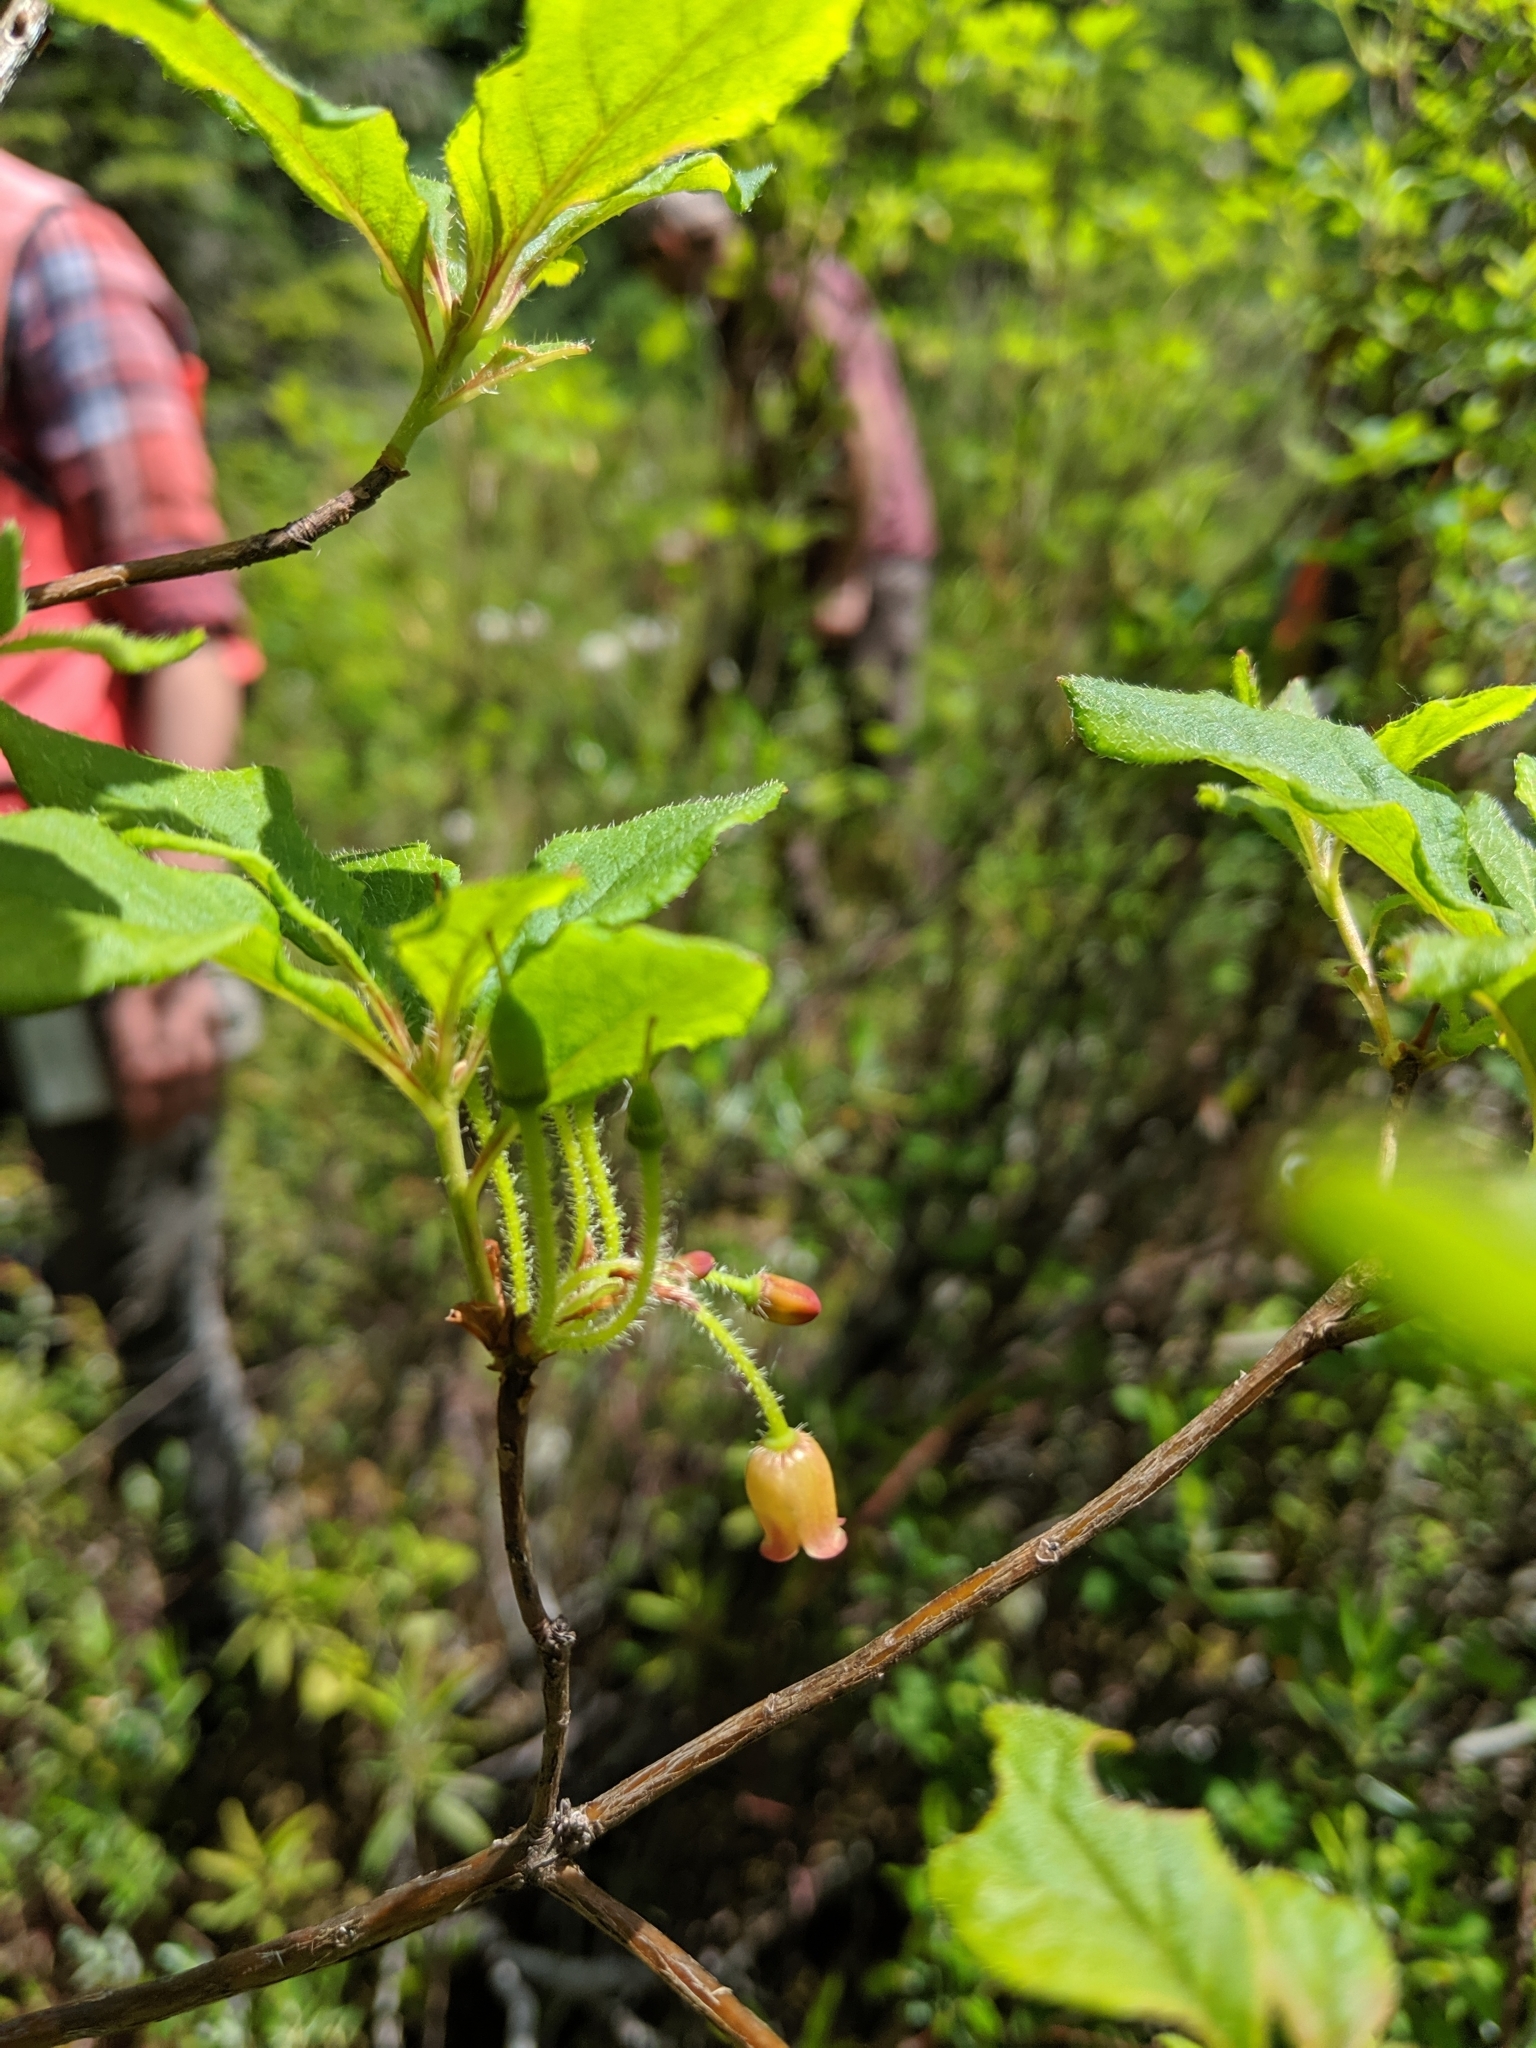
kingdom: Plantae
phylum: Tracheophyta
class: Magnoliopsida
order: Ericales
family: Ericaceae
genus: Rhododendron
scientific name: Rhododendron menziesii
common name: Pacific menziesia
